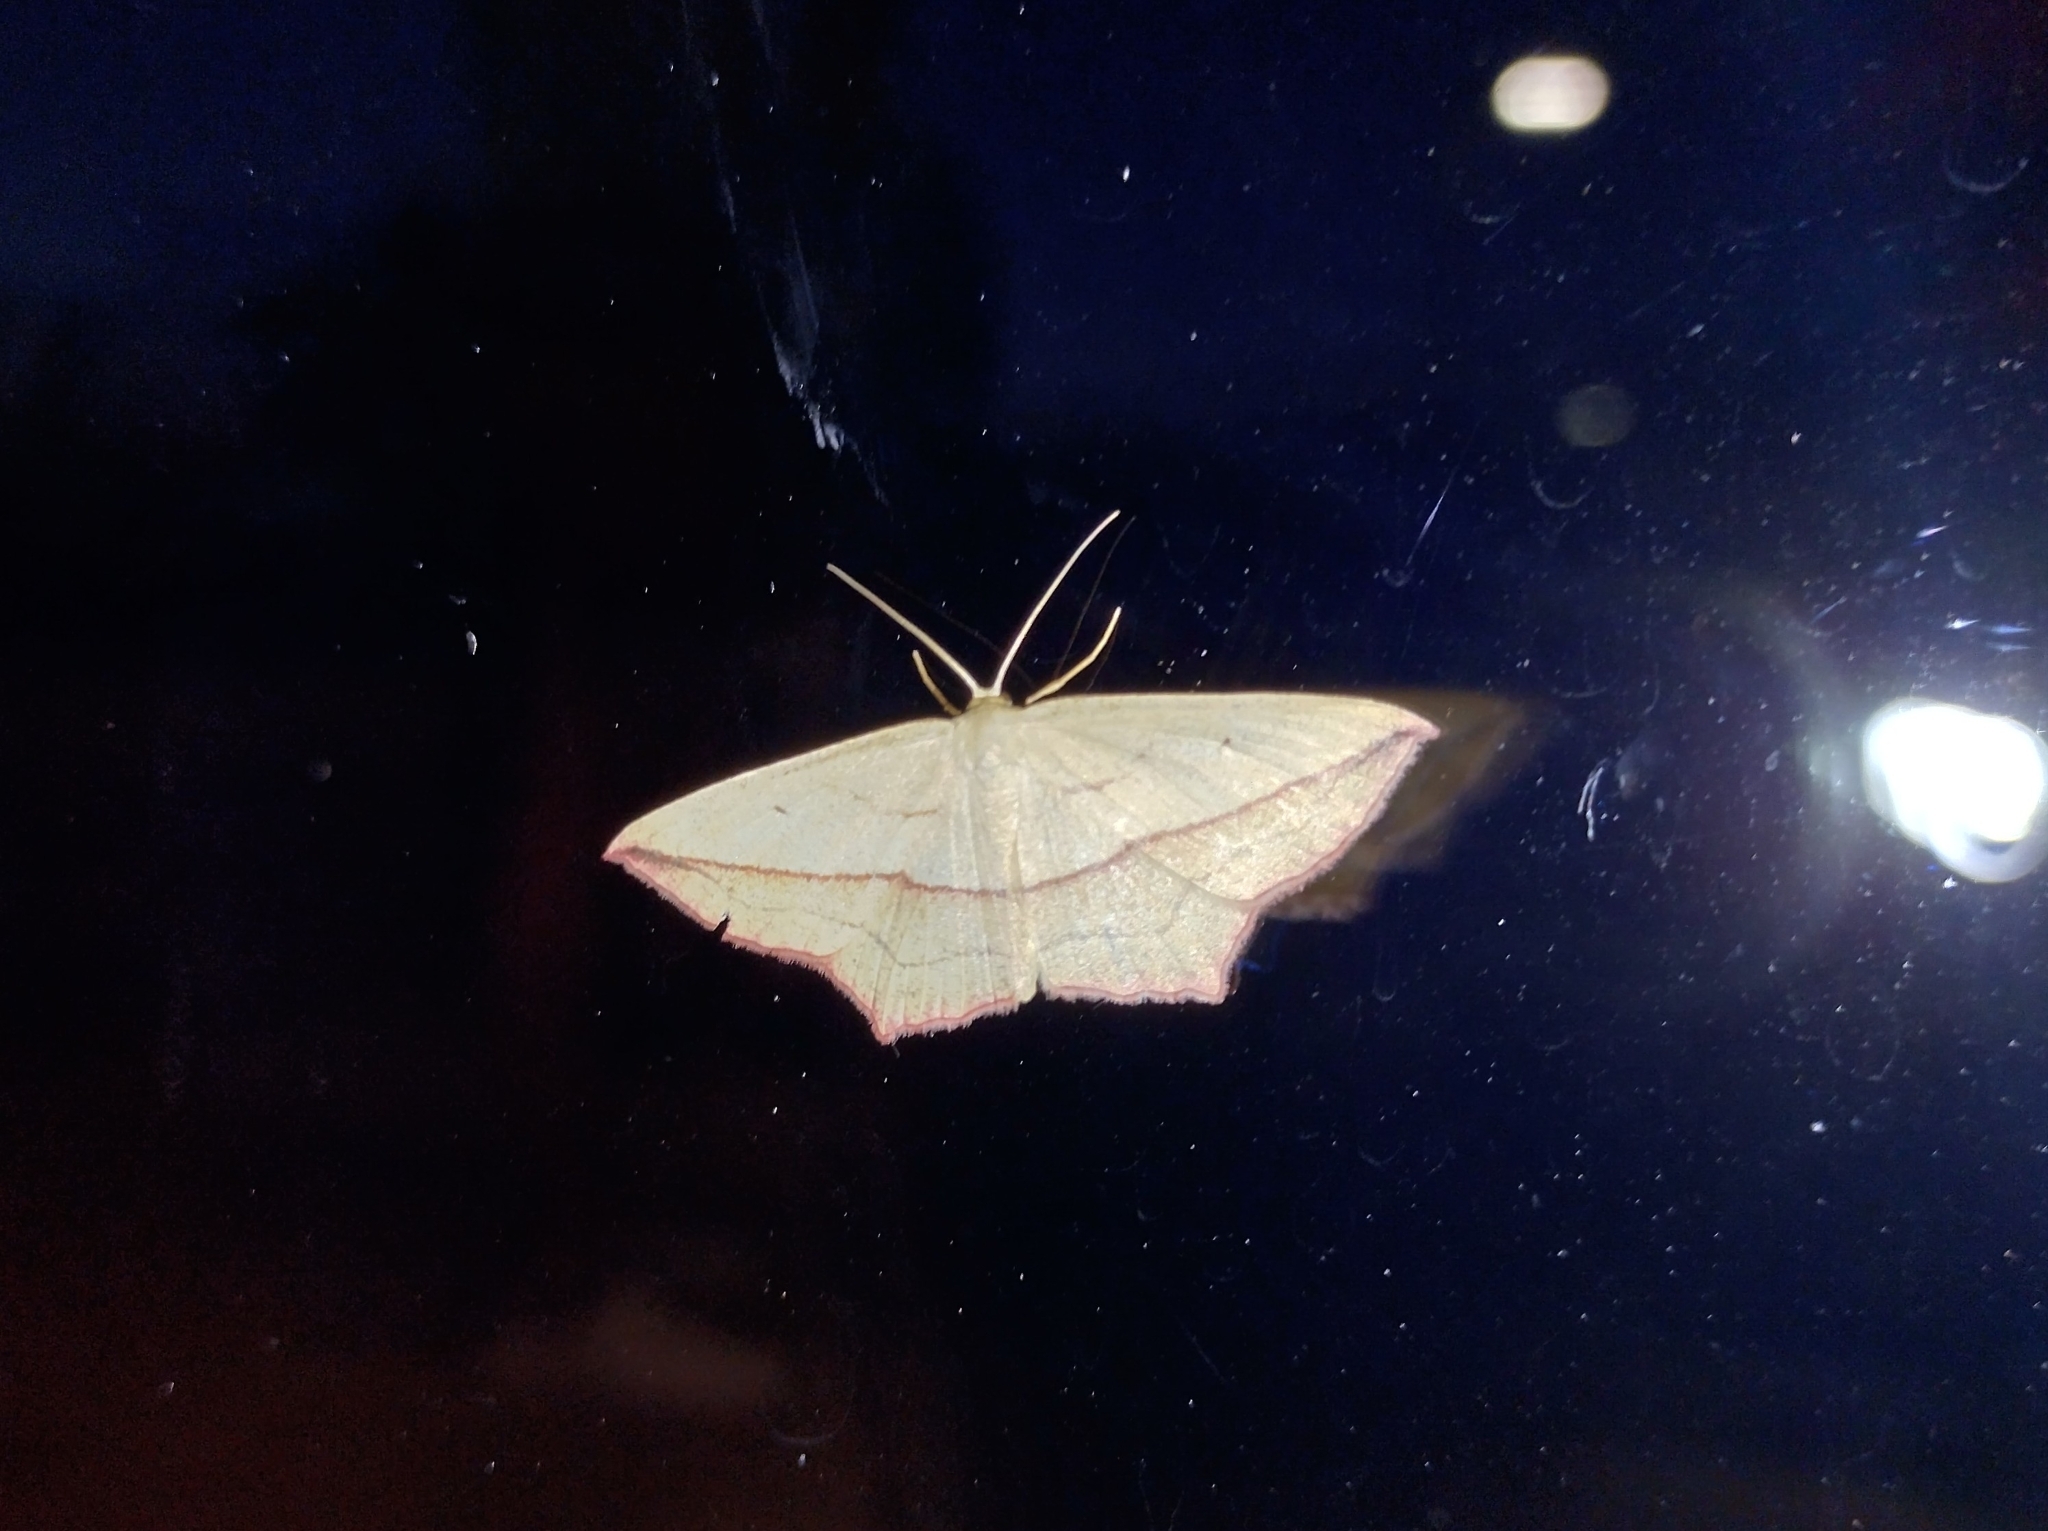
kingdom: Animalia
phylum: Arthropoda
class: Insecta
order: Lepidoptera
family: Geometridae
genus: Timandra
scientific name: Timandra comae
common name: Blood-vein
